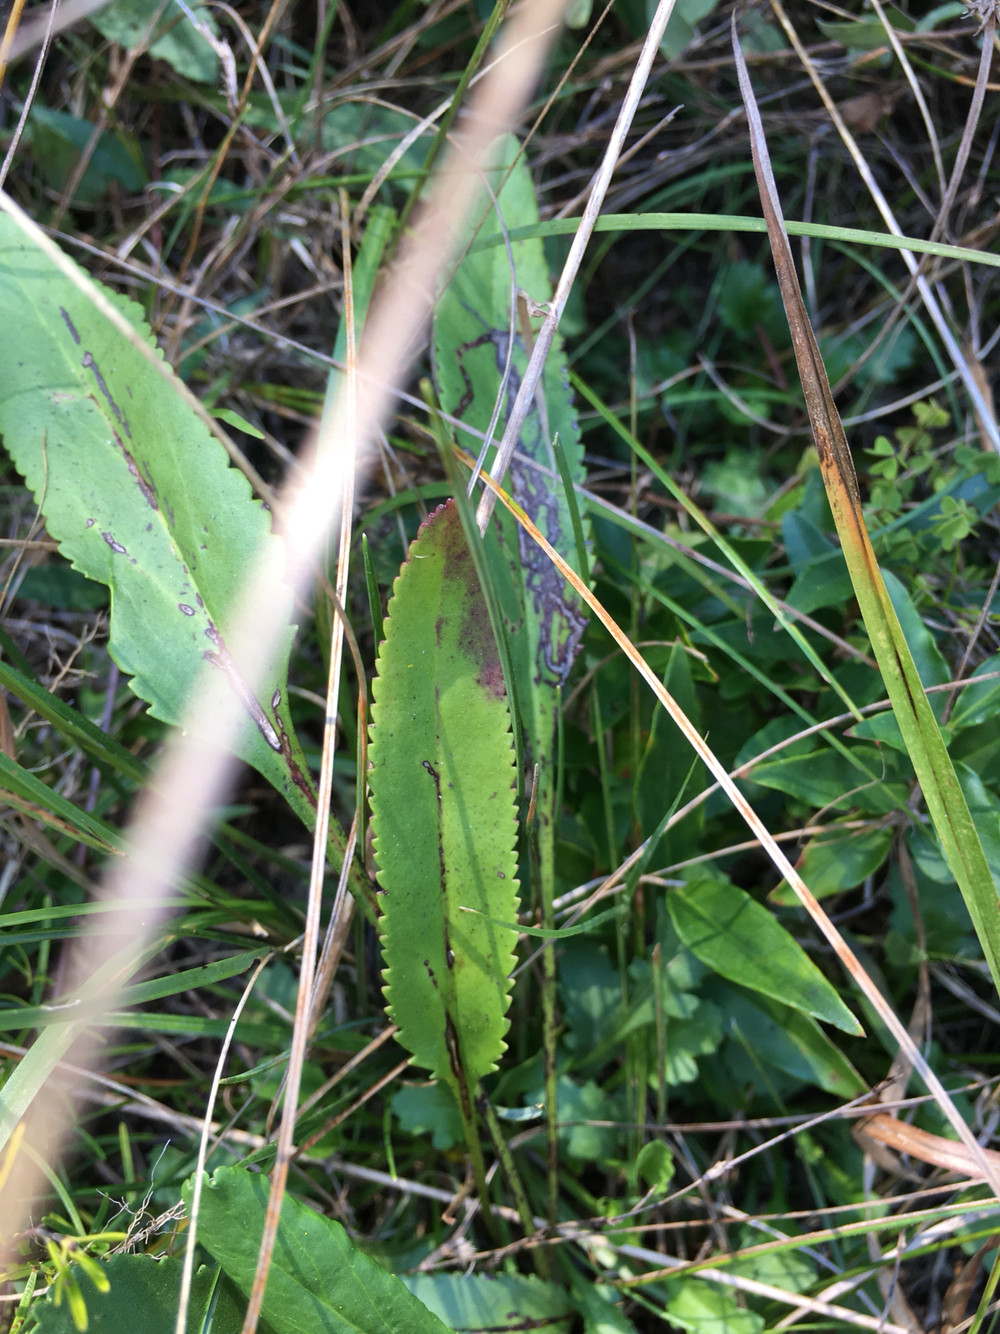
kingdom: Plantae
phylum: Tracheophyta
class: Magnoliopsida
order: Asterales
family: Asteraceae
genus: Packera
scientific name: Packera anonyma
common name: Small ragwort
